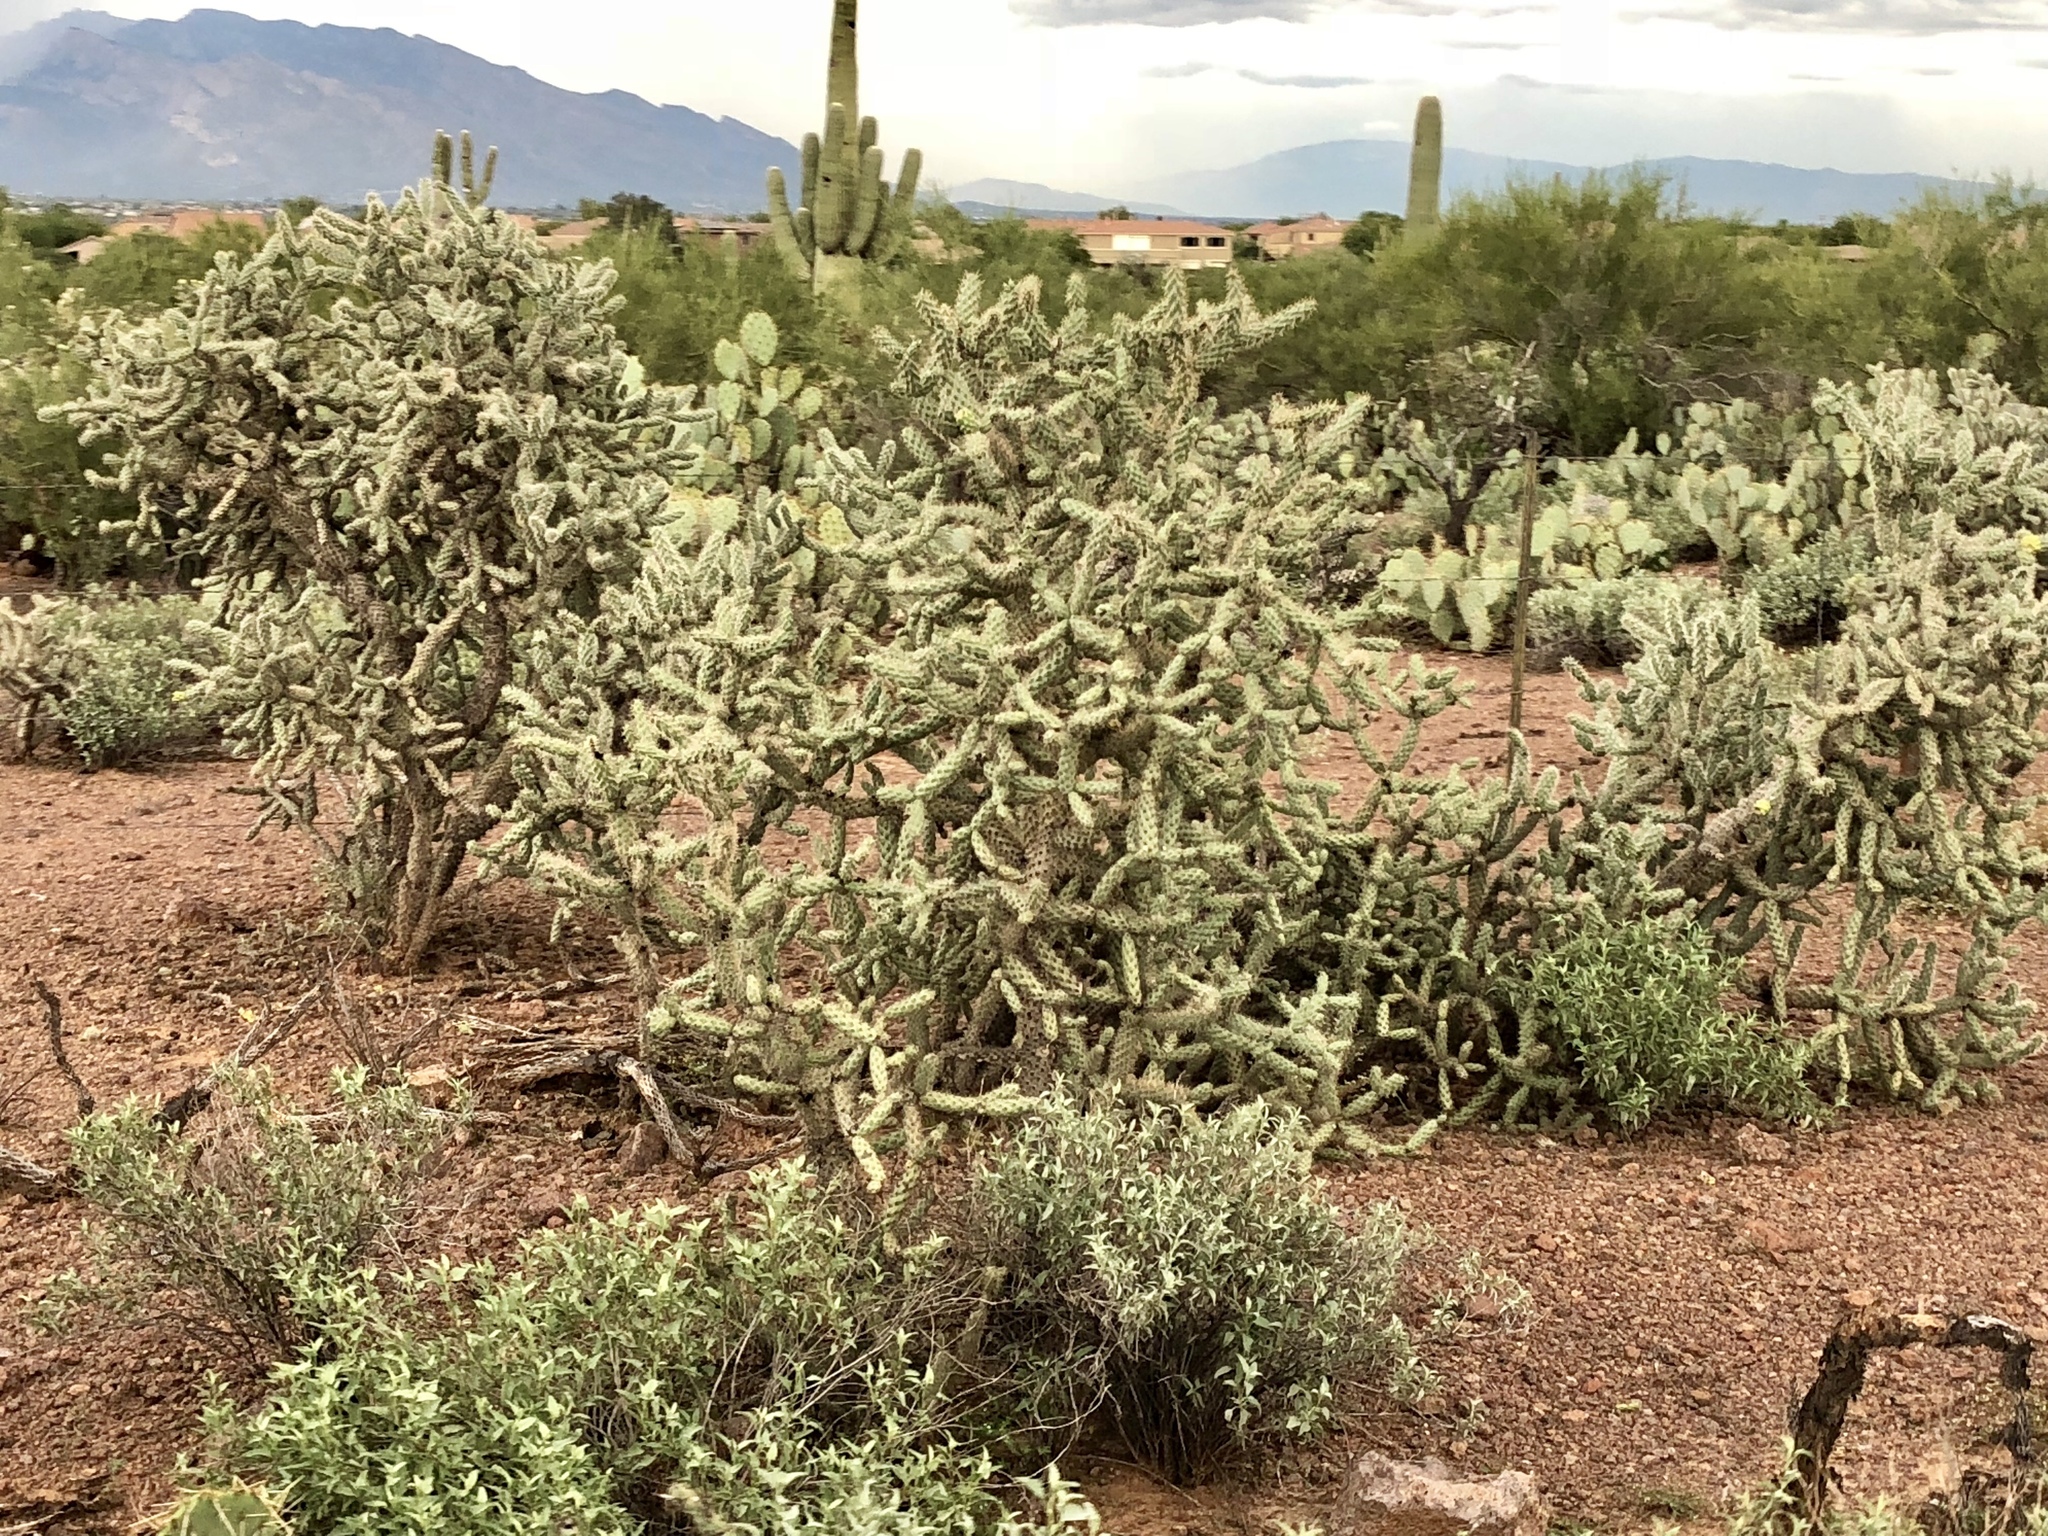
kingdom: Plantae
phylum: Tracheophyta
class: Magnoliopsida
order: Caryophyllales
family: Cactaceae
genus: Cylindropuntia
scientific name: Cylindropuntia thurberi
